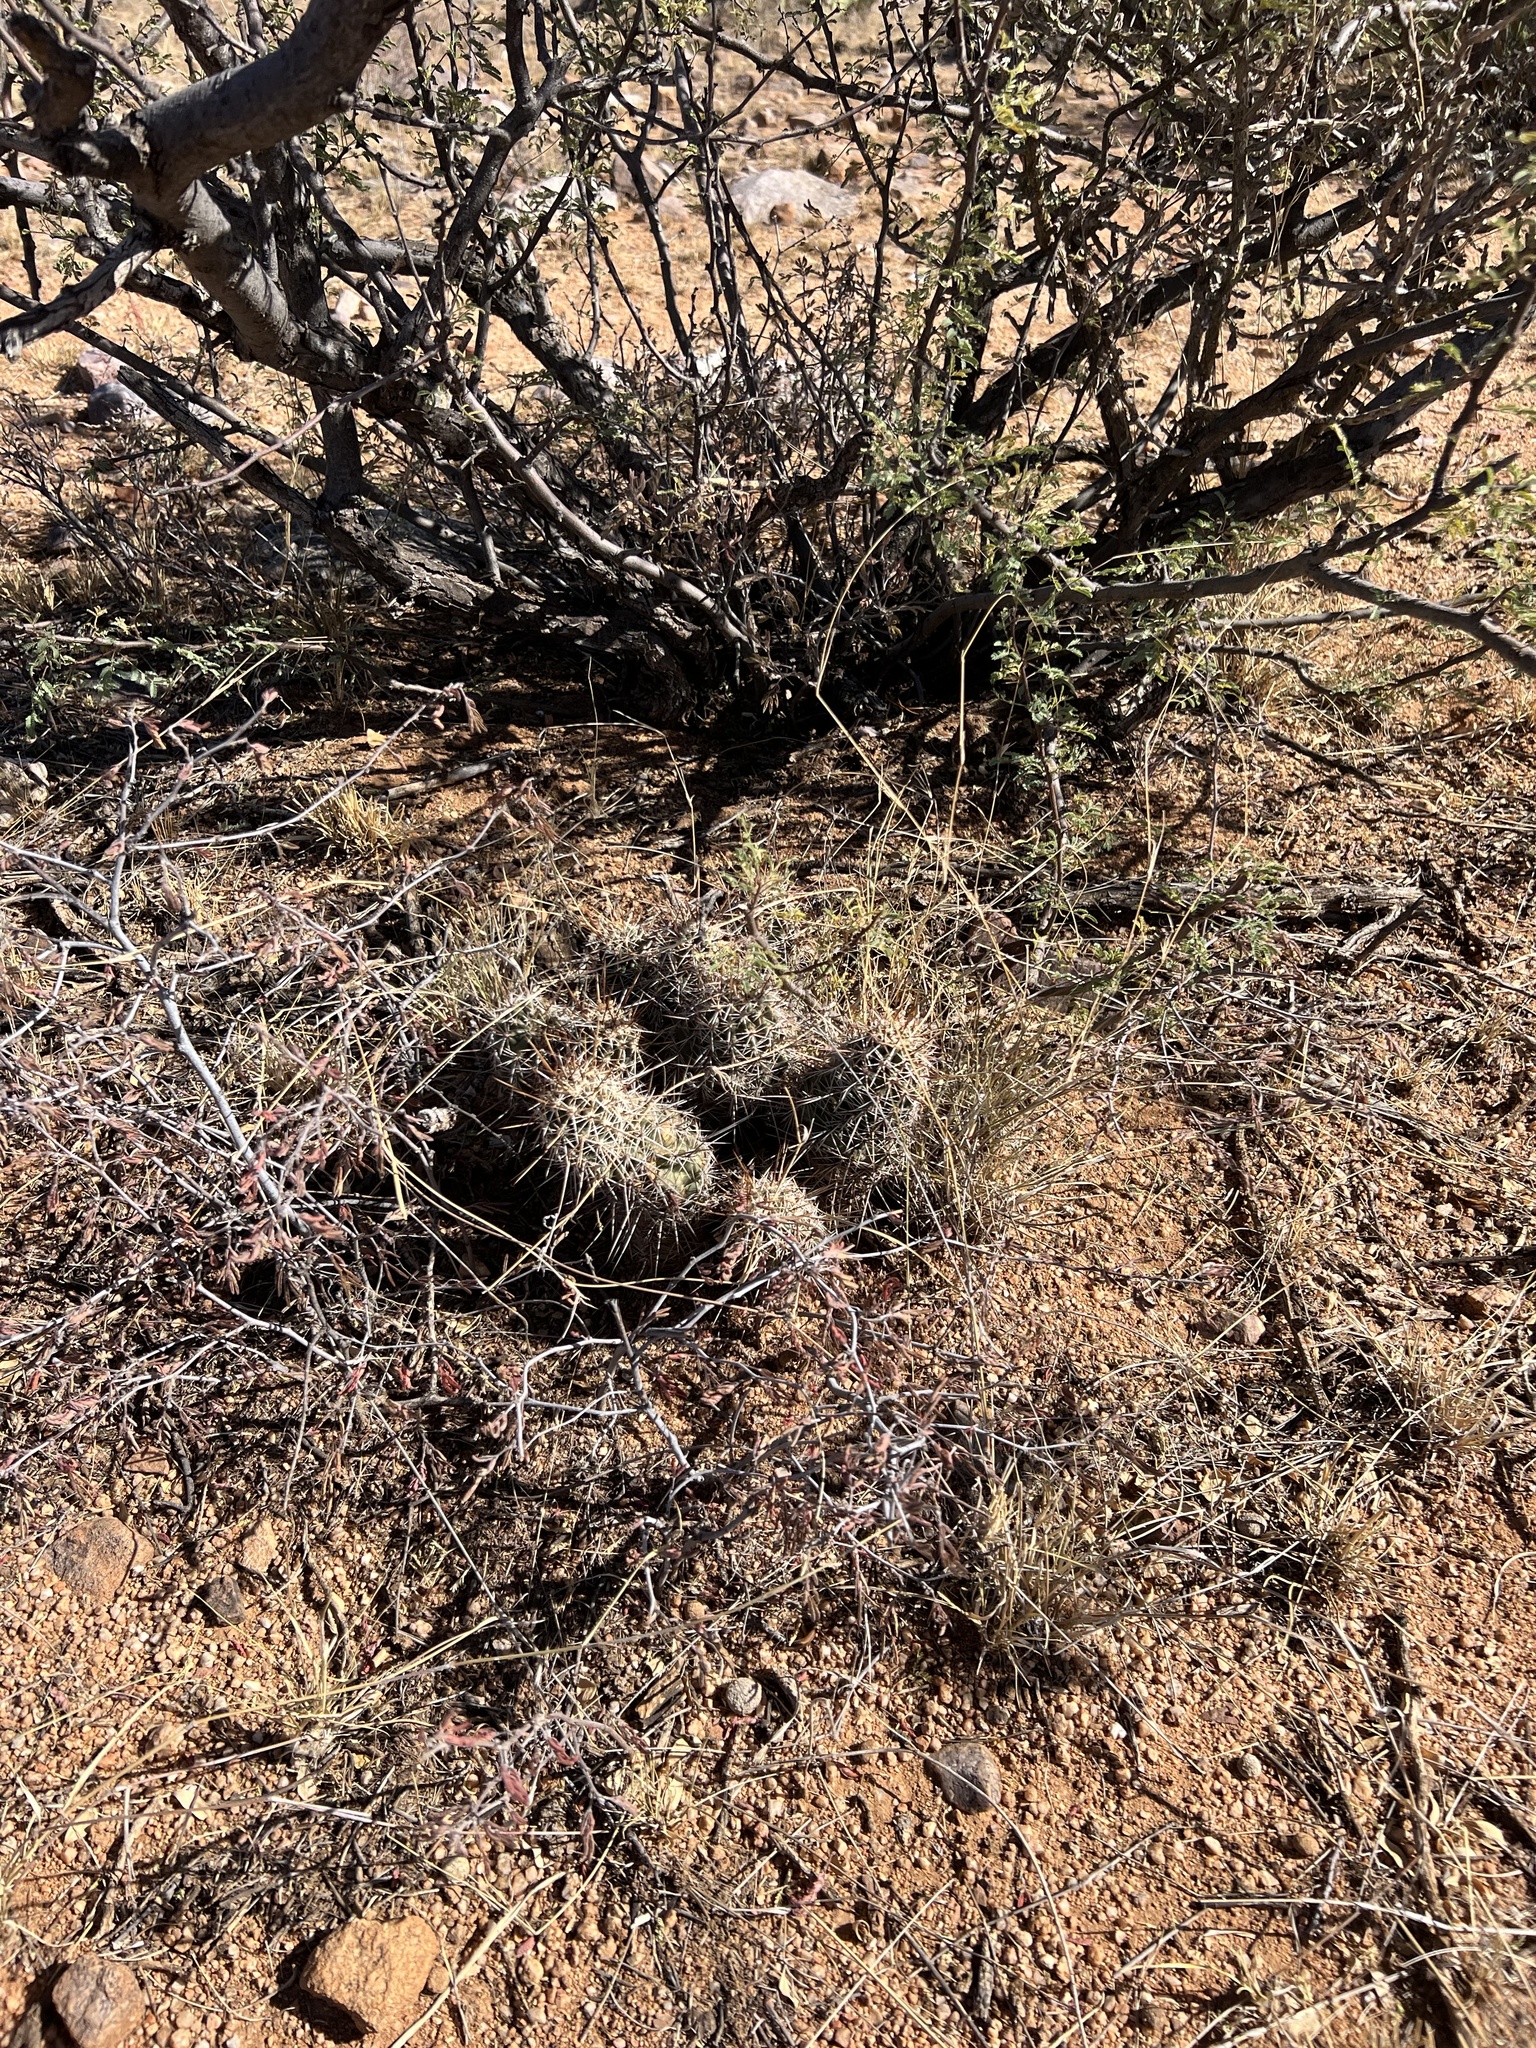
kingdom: Plantae
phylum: Tracheophyta
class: Magnoliopsida
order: Caryophyllales
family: Cactaceae
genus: Echinocereus
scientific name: Echinocereus fasciculatus
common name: Bundle hedgehog
